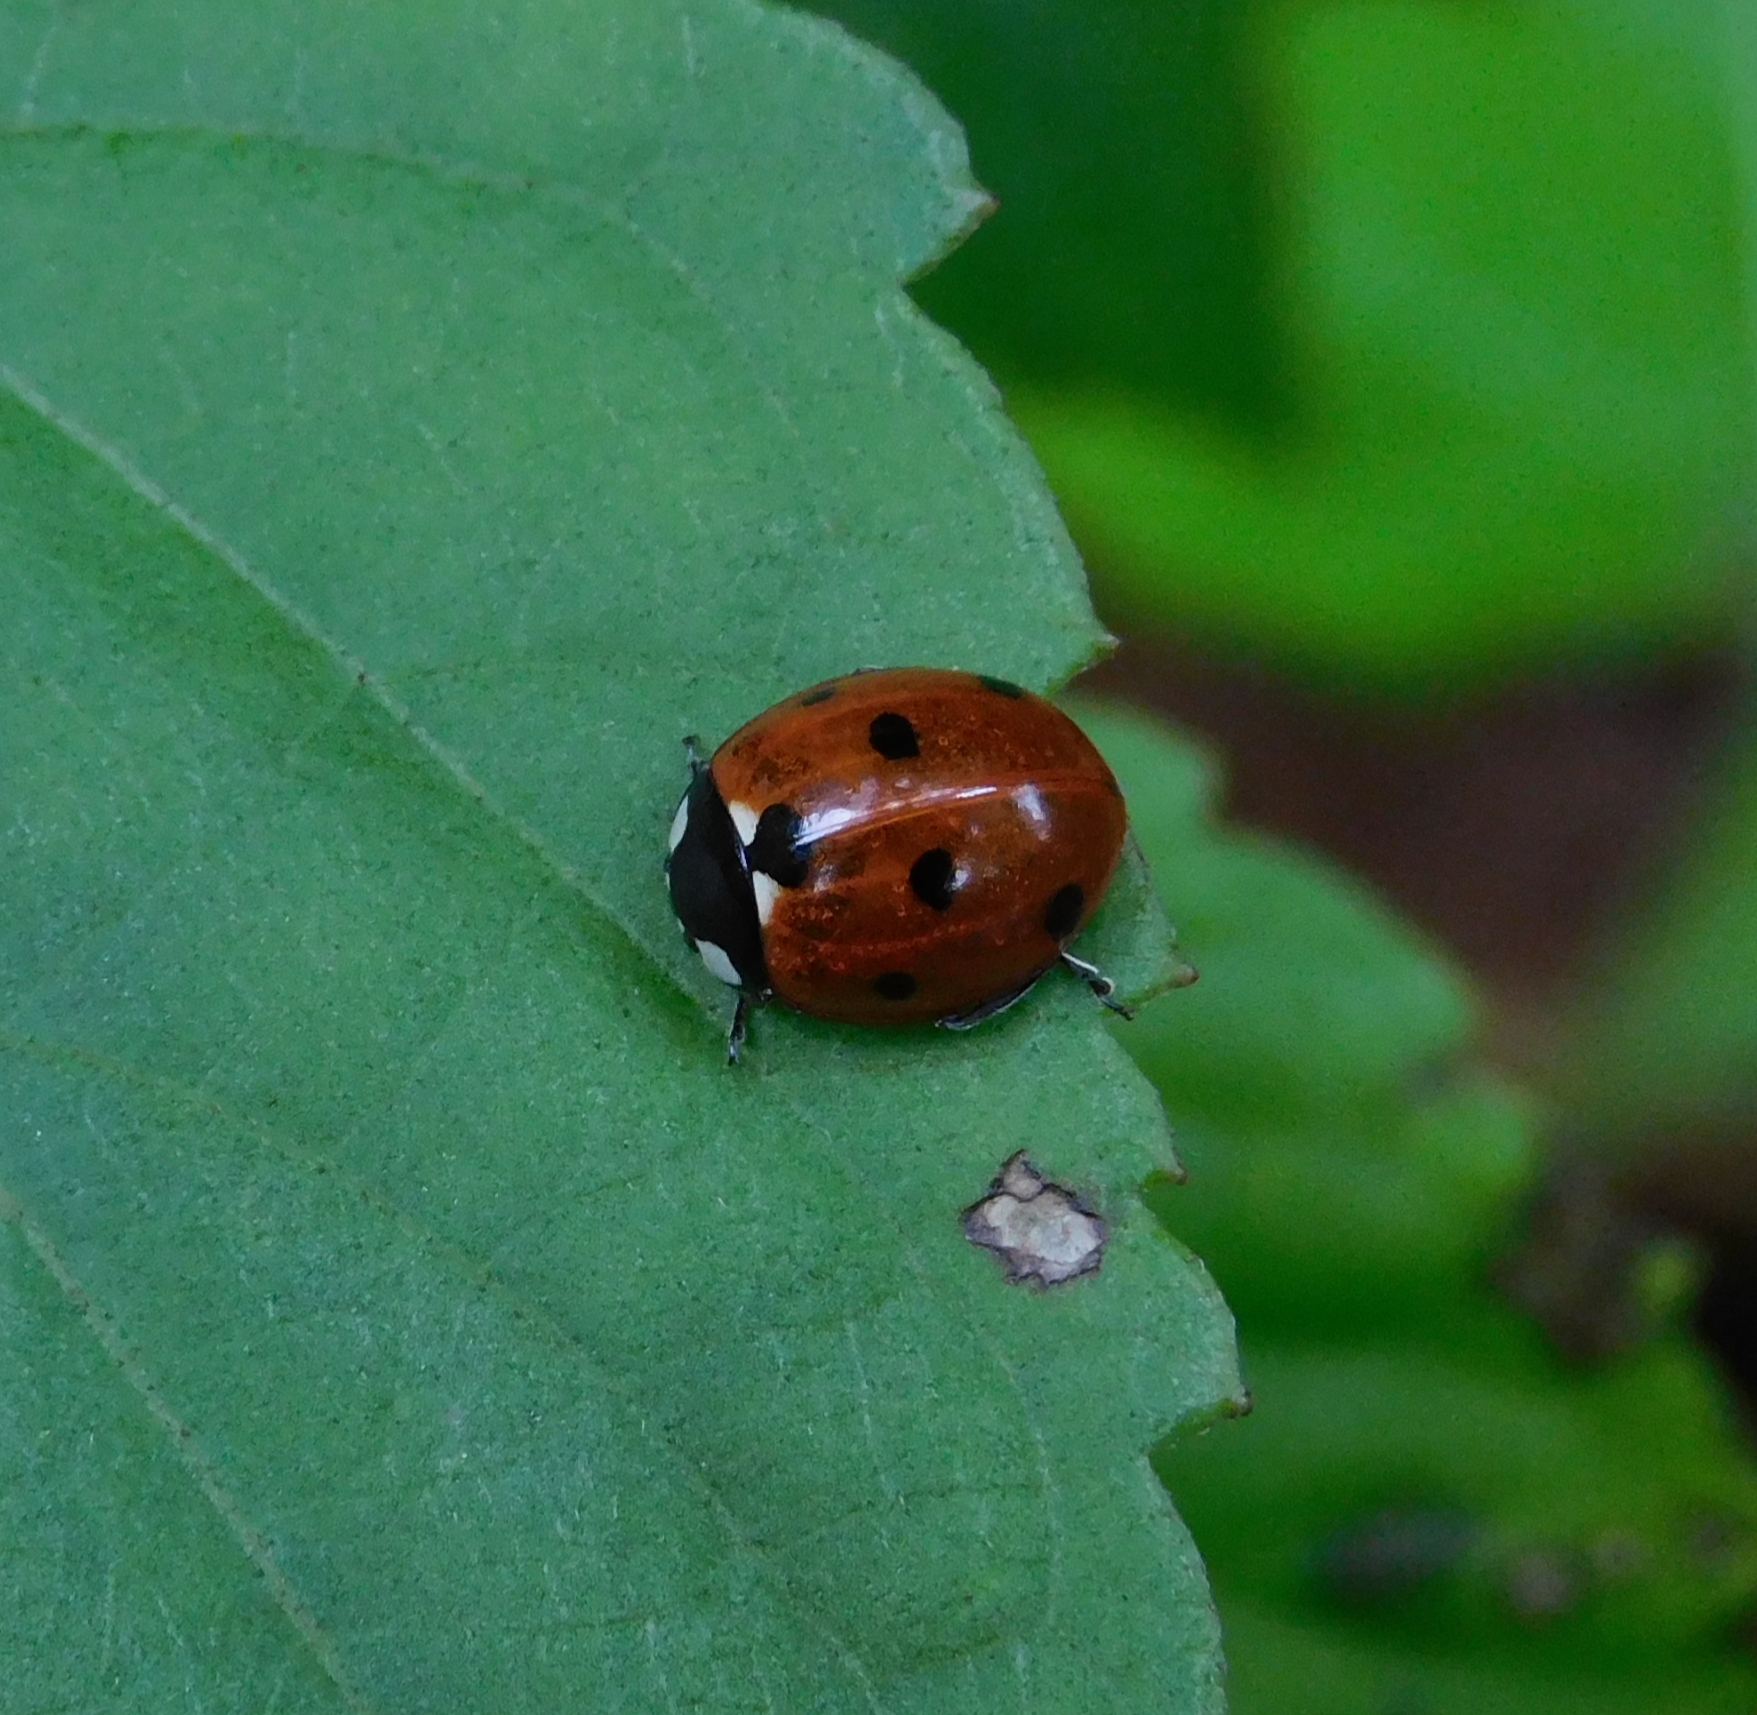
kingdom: Animalia
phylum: Arthropoda
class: Insecta
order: Coleoptera
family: Coccinellidae
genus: Coccinella
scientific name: Coccinella septempunctata
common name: Sevenspotted lady beetle
